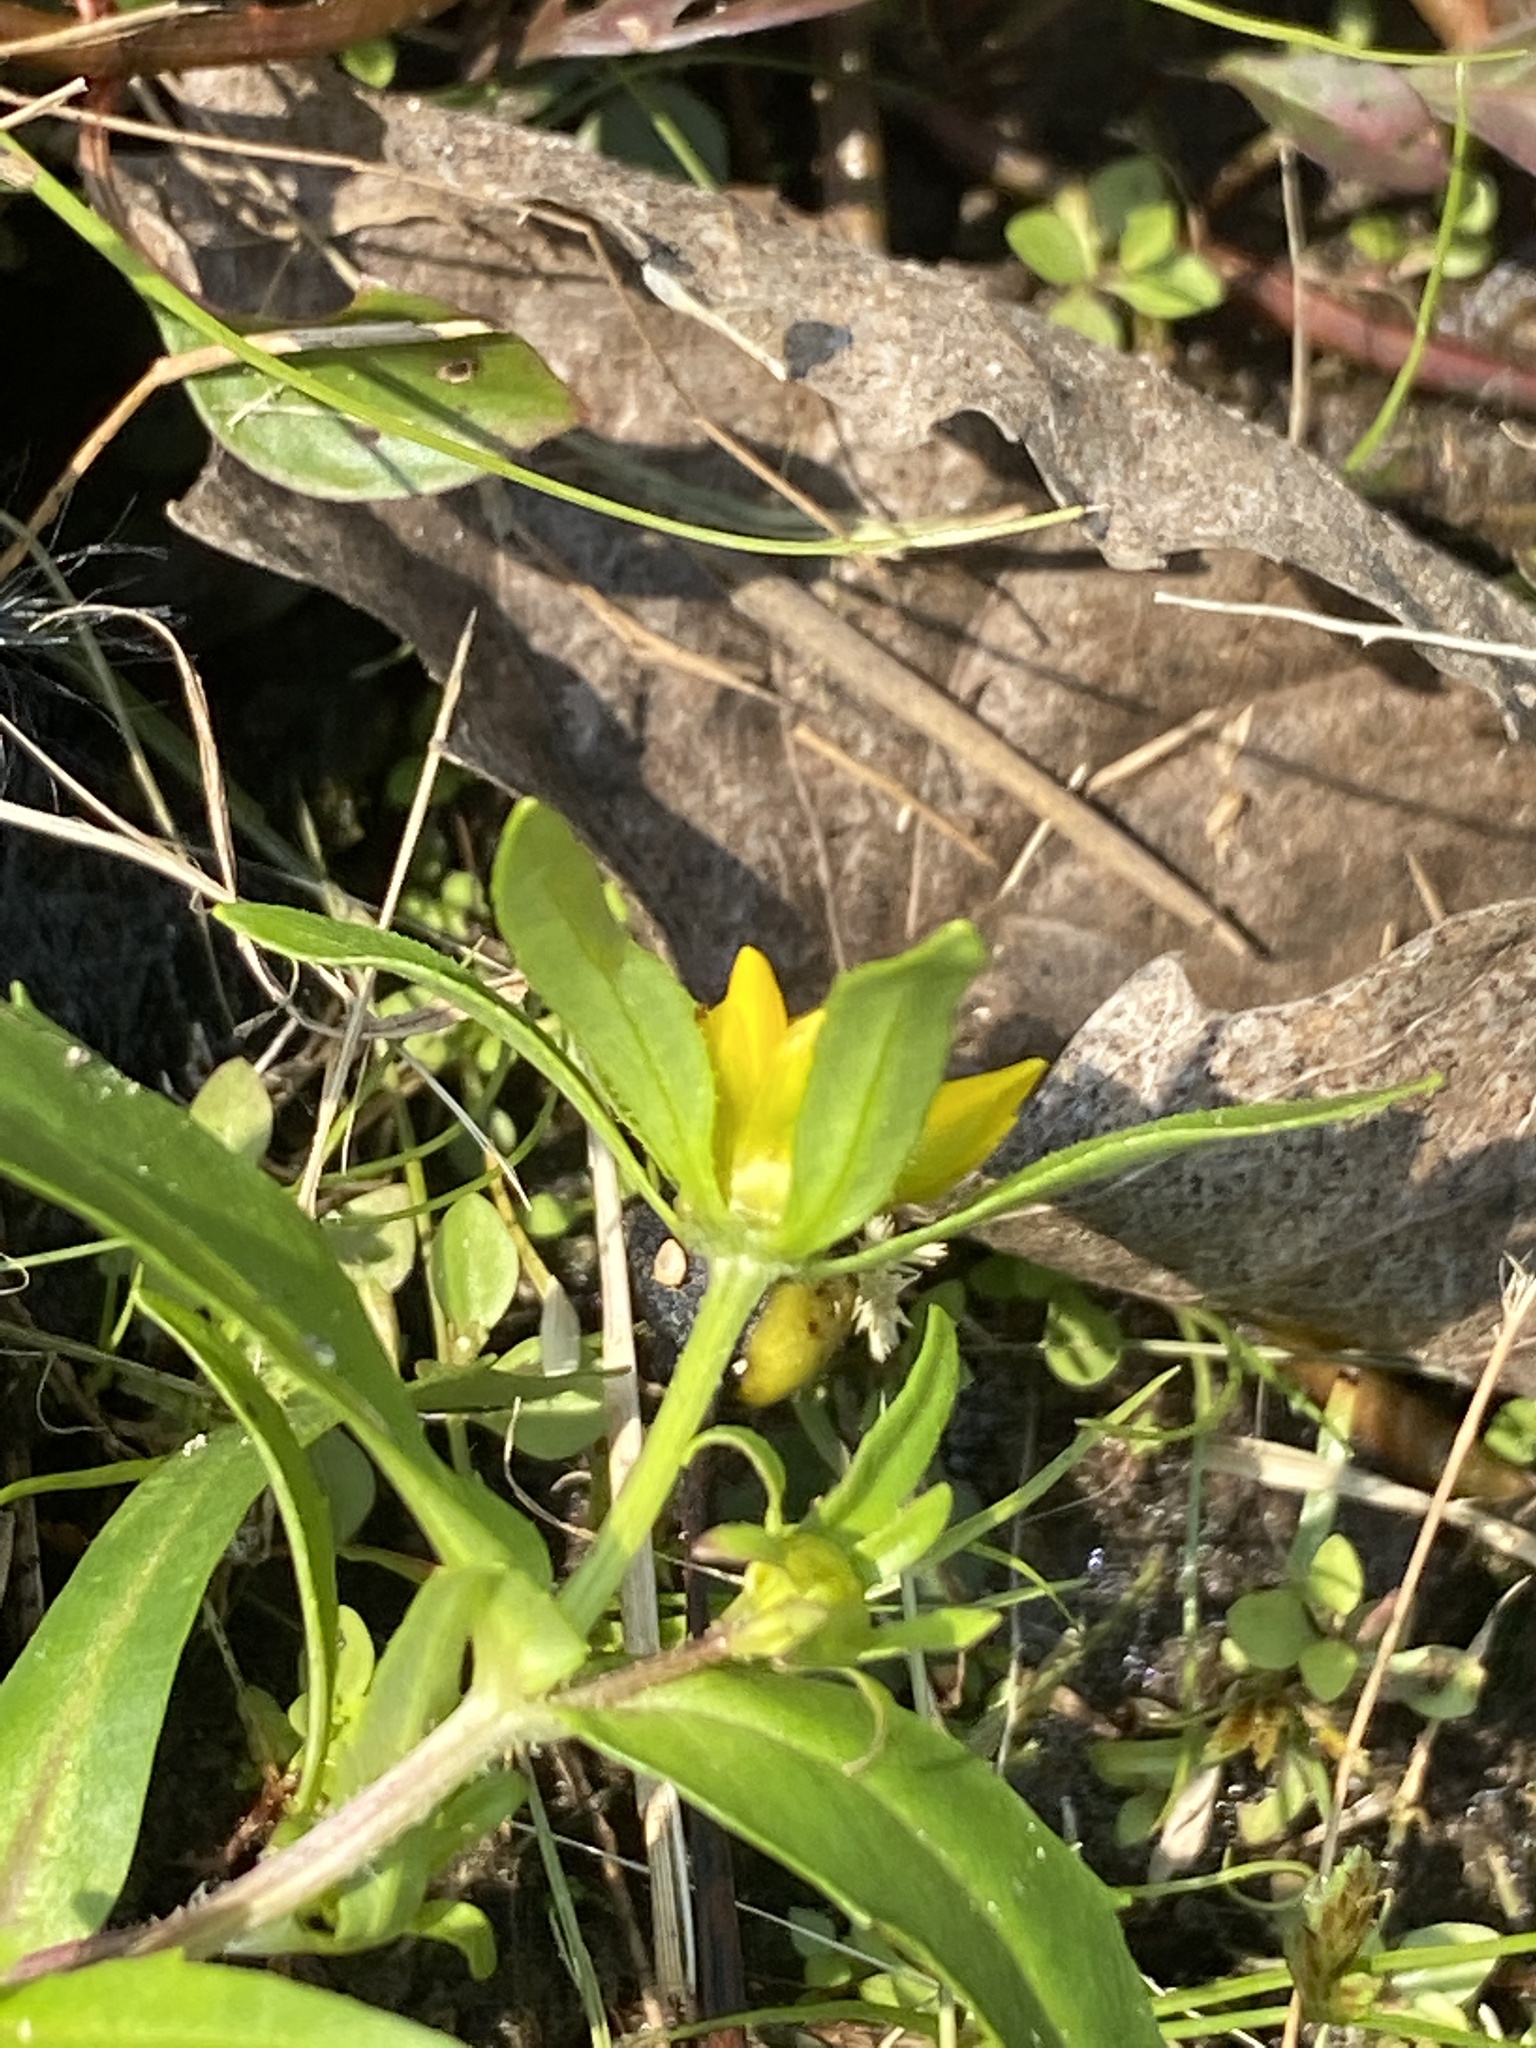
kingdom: Plantae
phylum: Tracheophyta
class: Magnoliopsida
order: Asterales
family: Asteraceae
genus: Bidens
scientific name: Bidens cernua
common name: Nodding bur-marigold
